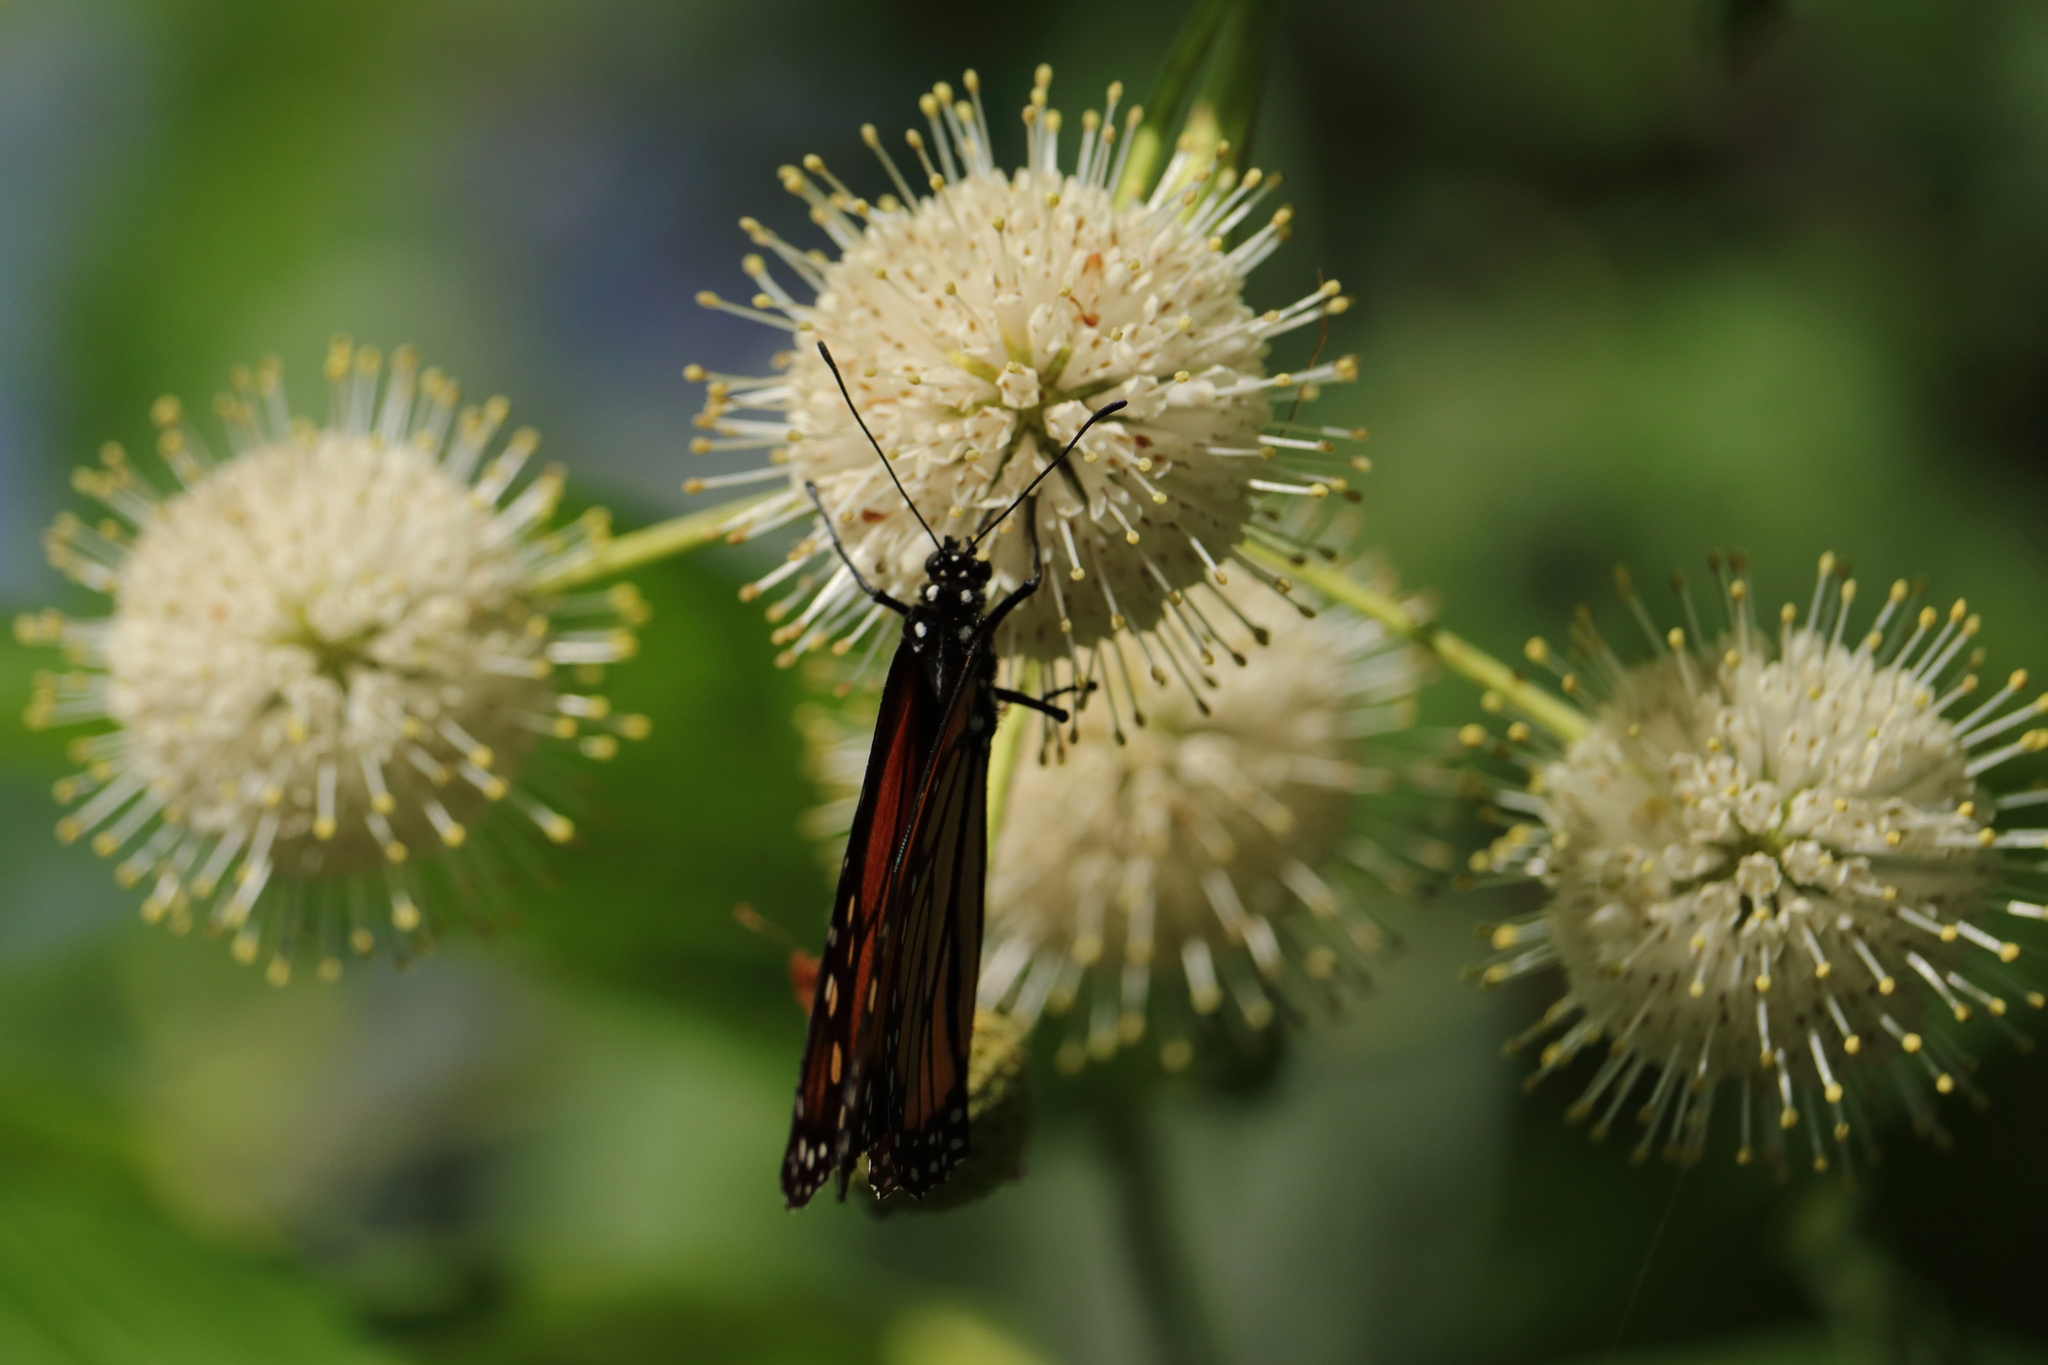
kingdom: Animalia
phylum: Arthropoda
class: Insecta
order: Lepidoptera
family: Nymphalidae
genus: Danaus
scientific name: Danaus plexippus
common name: Monarch
